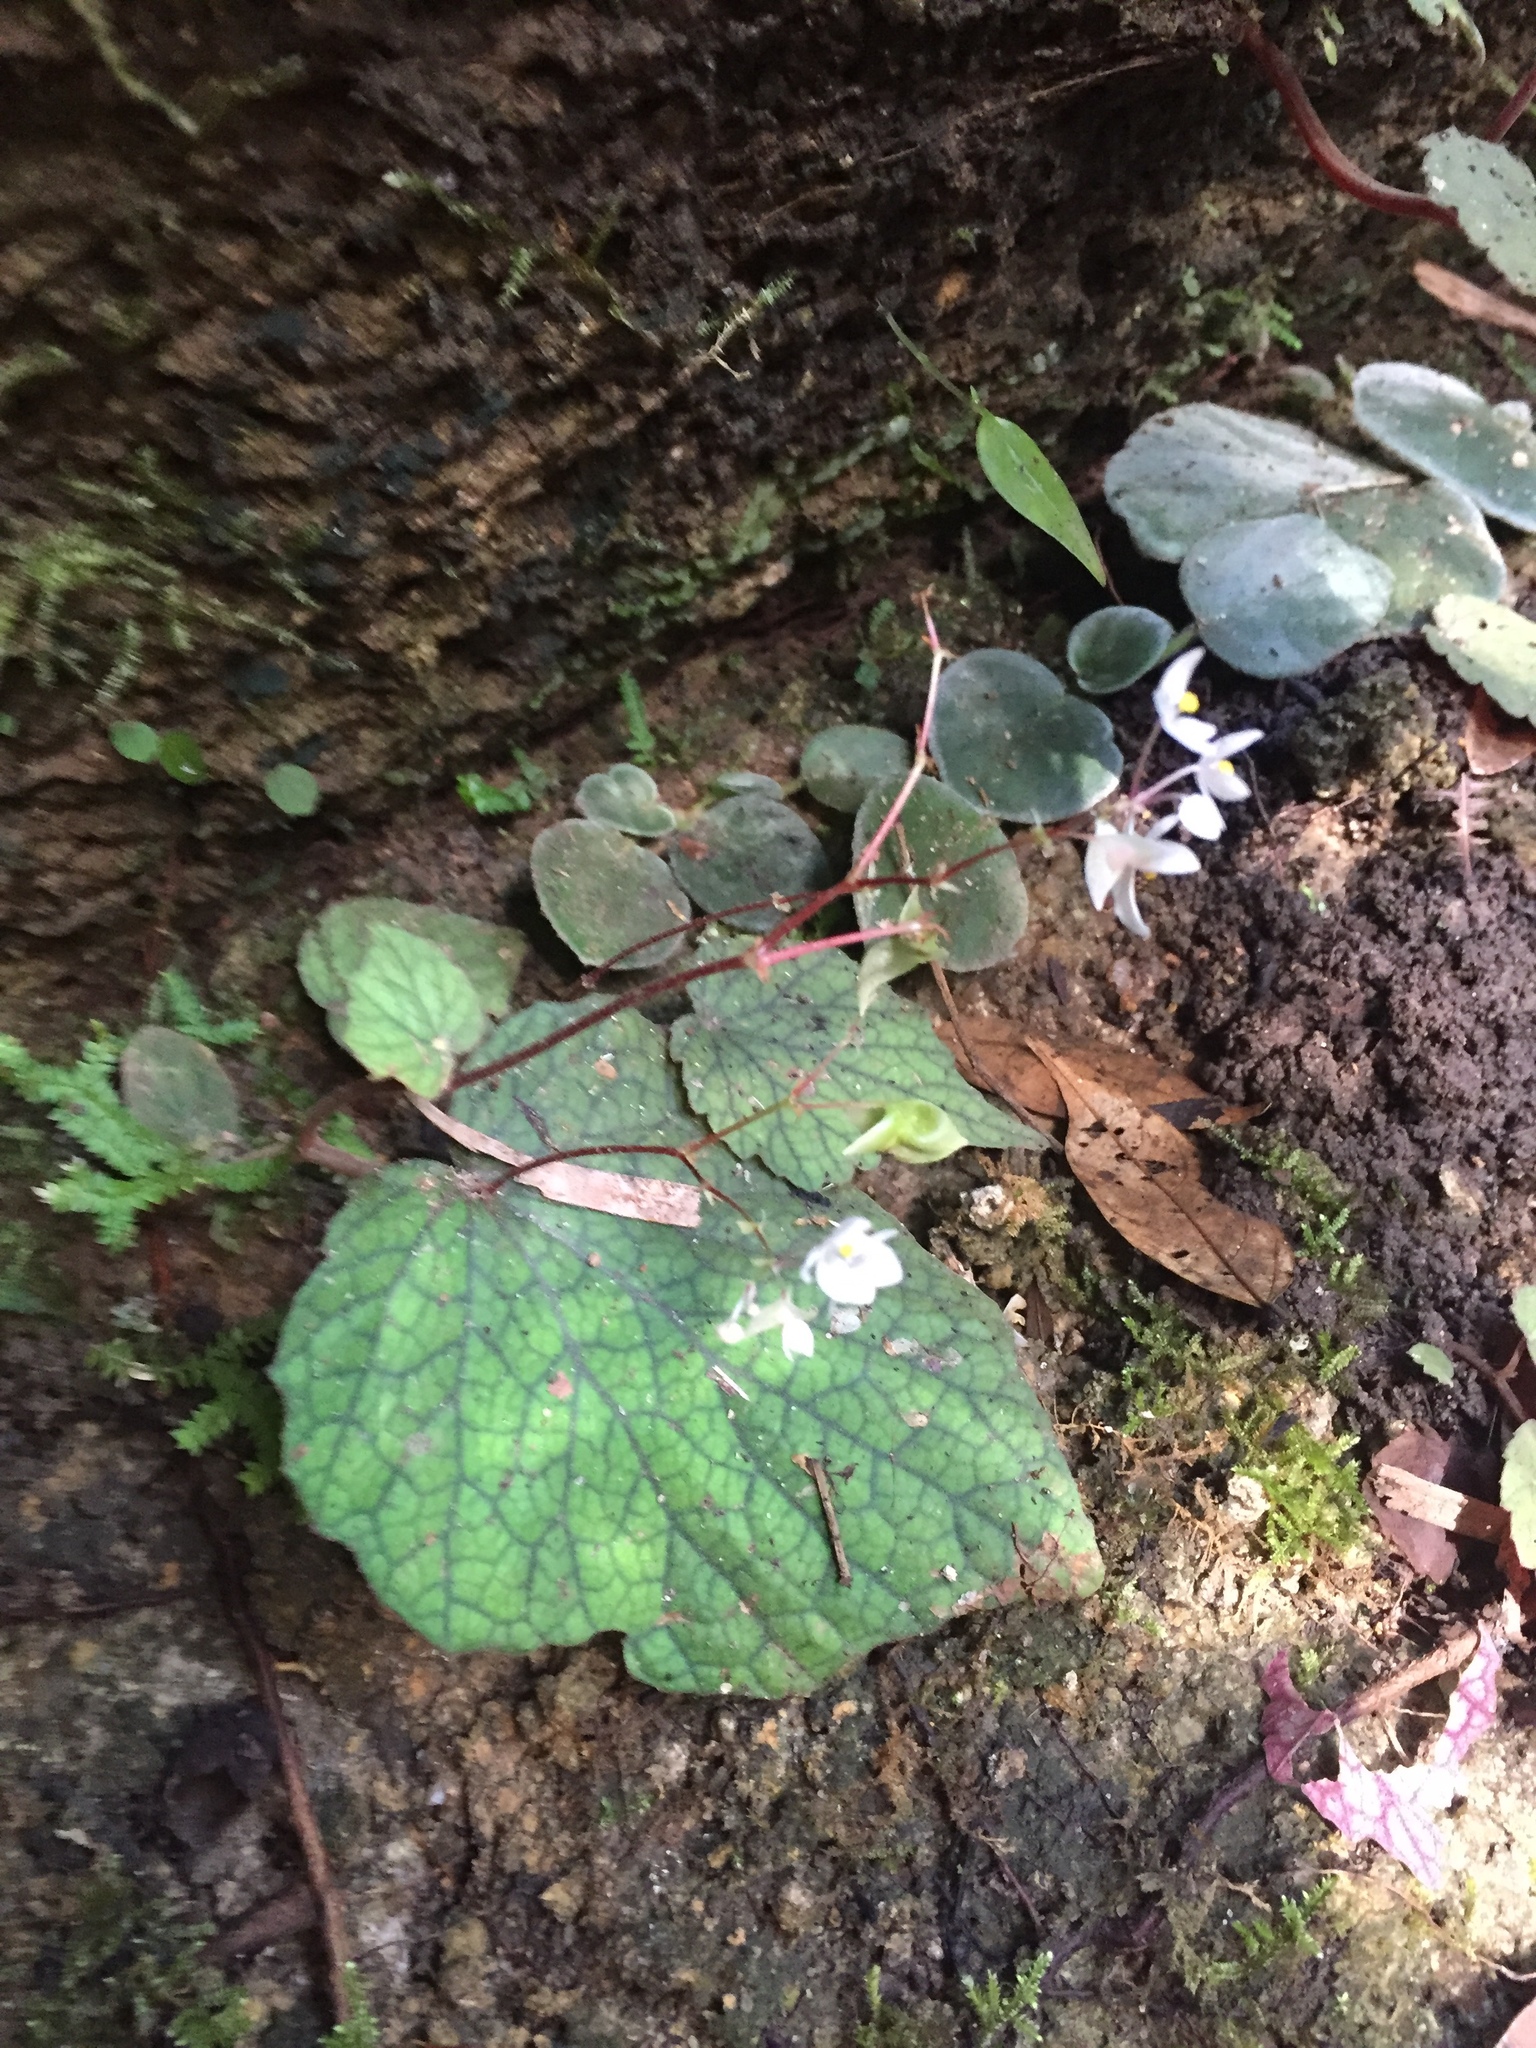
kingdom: Plantae
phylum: Tracheophyta
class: Magnoliopsida
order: Cucurbitales
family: Begoniaceae
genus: Begonia
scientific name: Begonia sinuata
